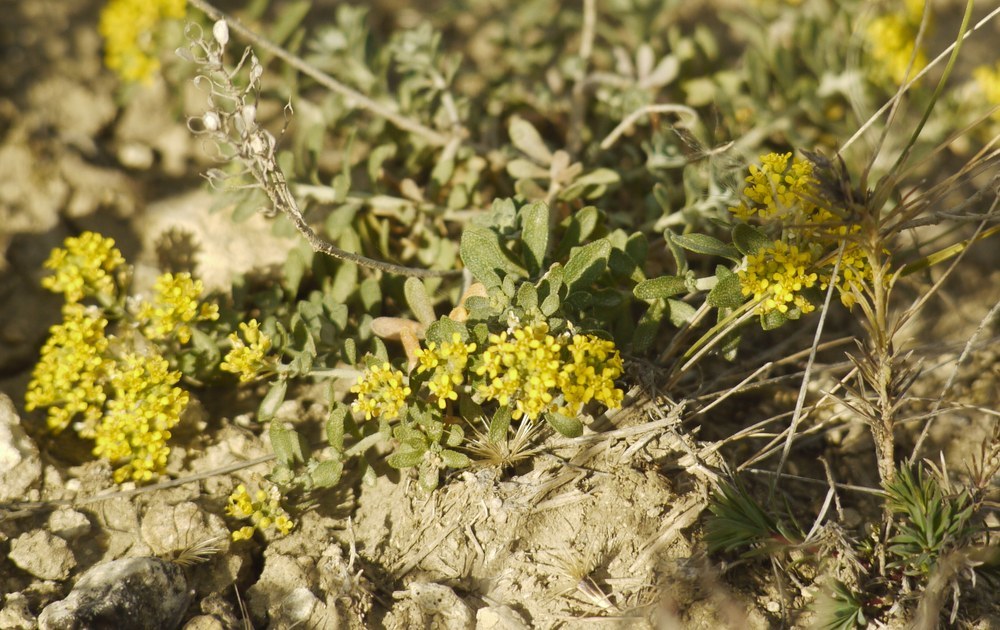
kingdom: Plantae
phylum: Tracheophyta
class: Magnoliopsida
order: Brassicales
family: Brassicaceae
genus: Alyssum
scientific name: Alyssum alyssoides
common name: Small alison
